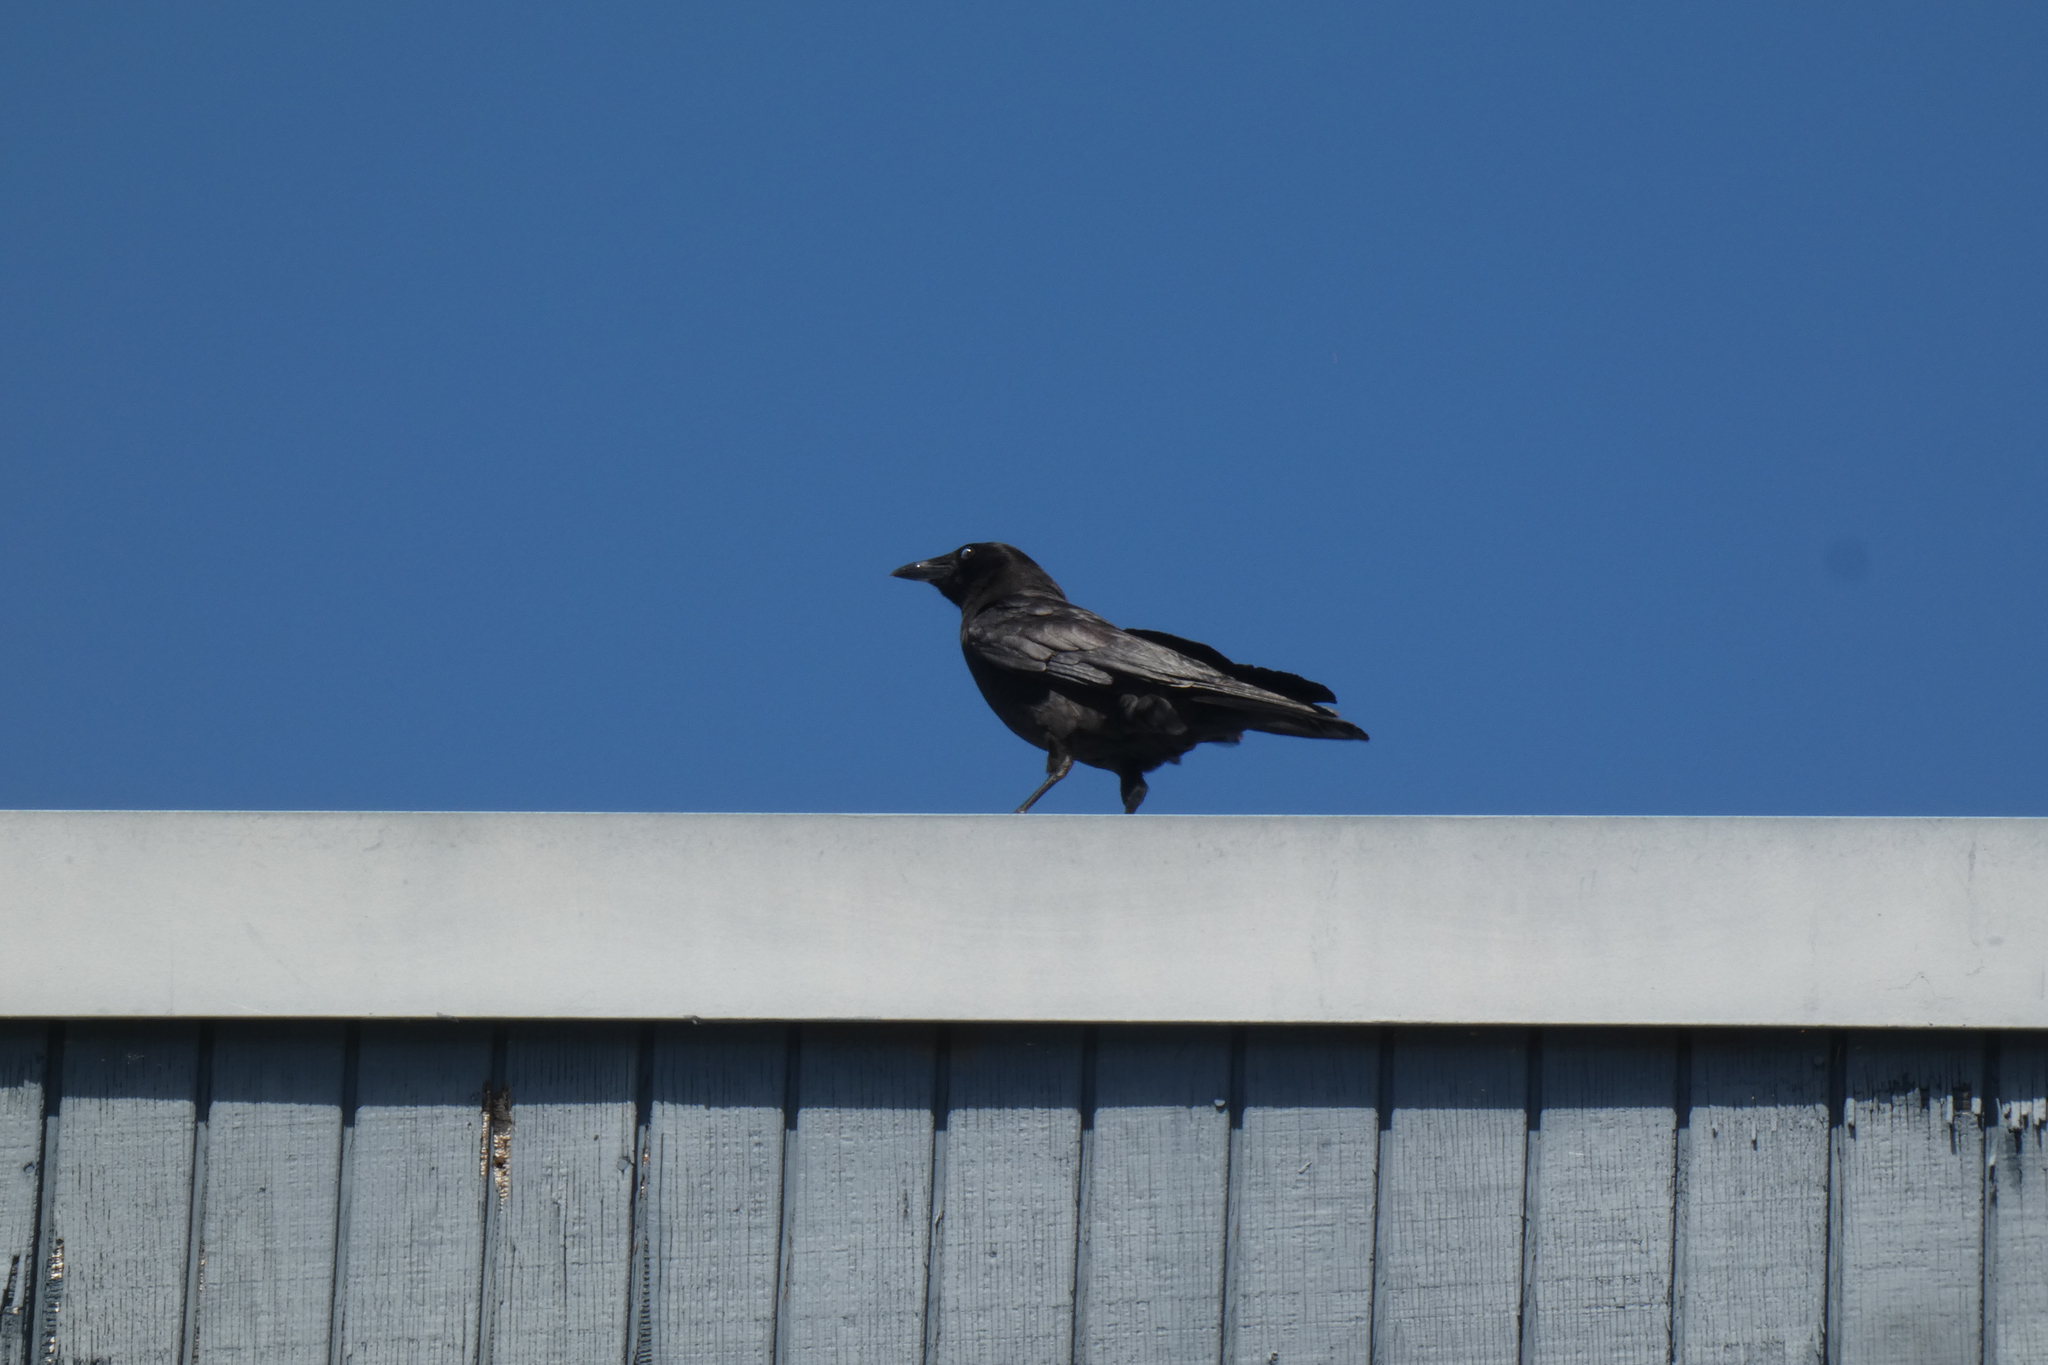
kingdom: Animalia
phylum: Chordata
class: Aves
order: Passeriformes
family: Corvidae
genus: Corvus
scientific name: Corvus brachyrhynchos
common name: American crow
